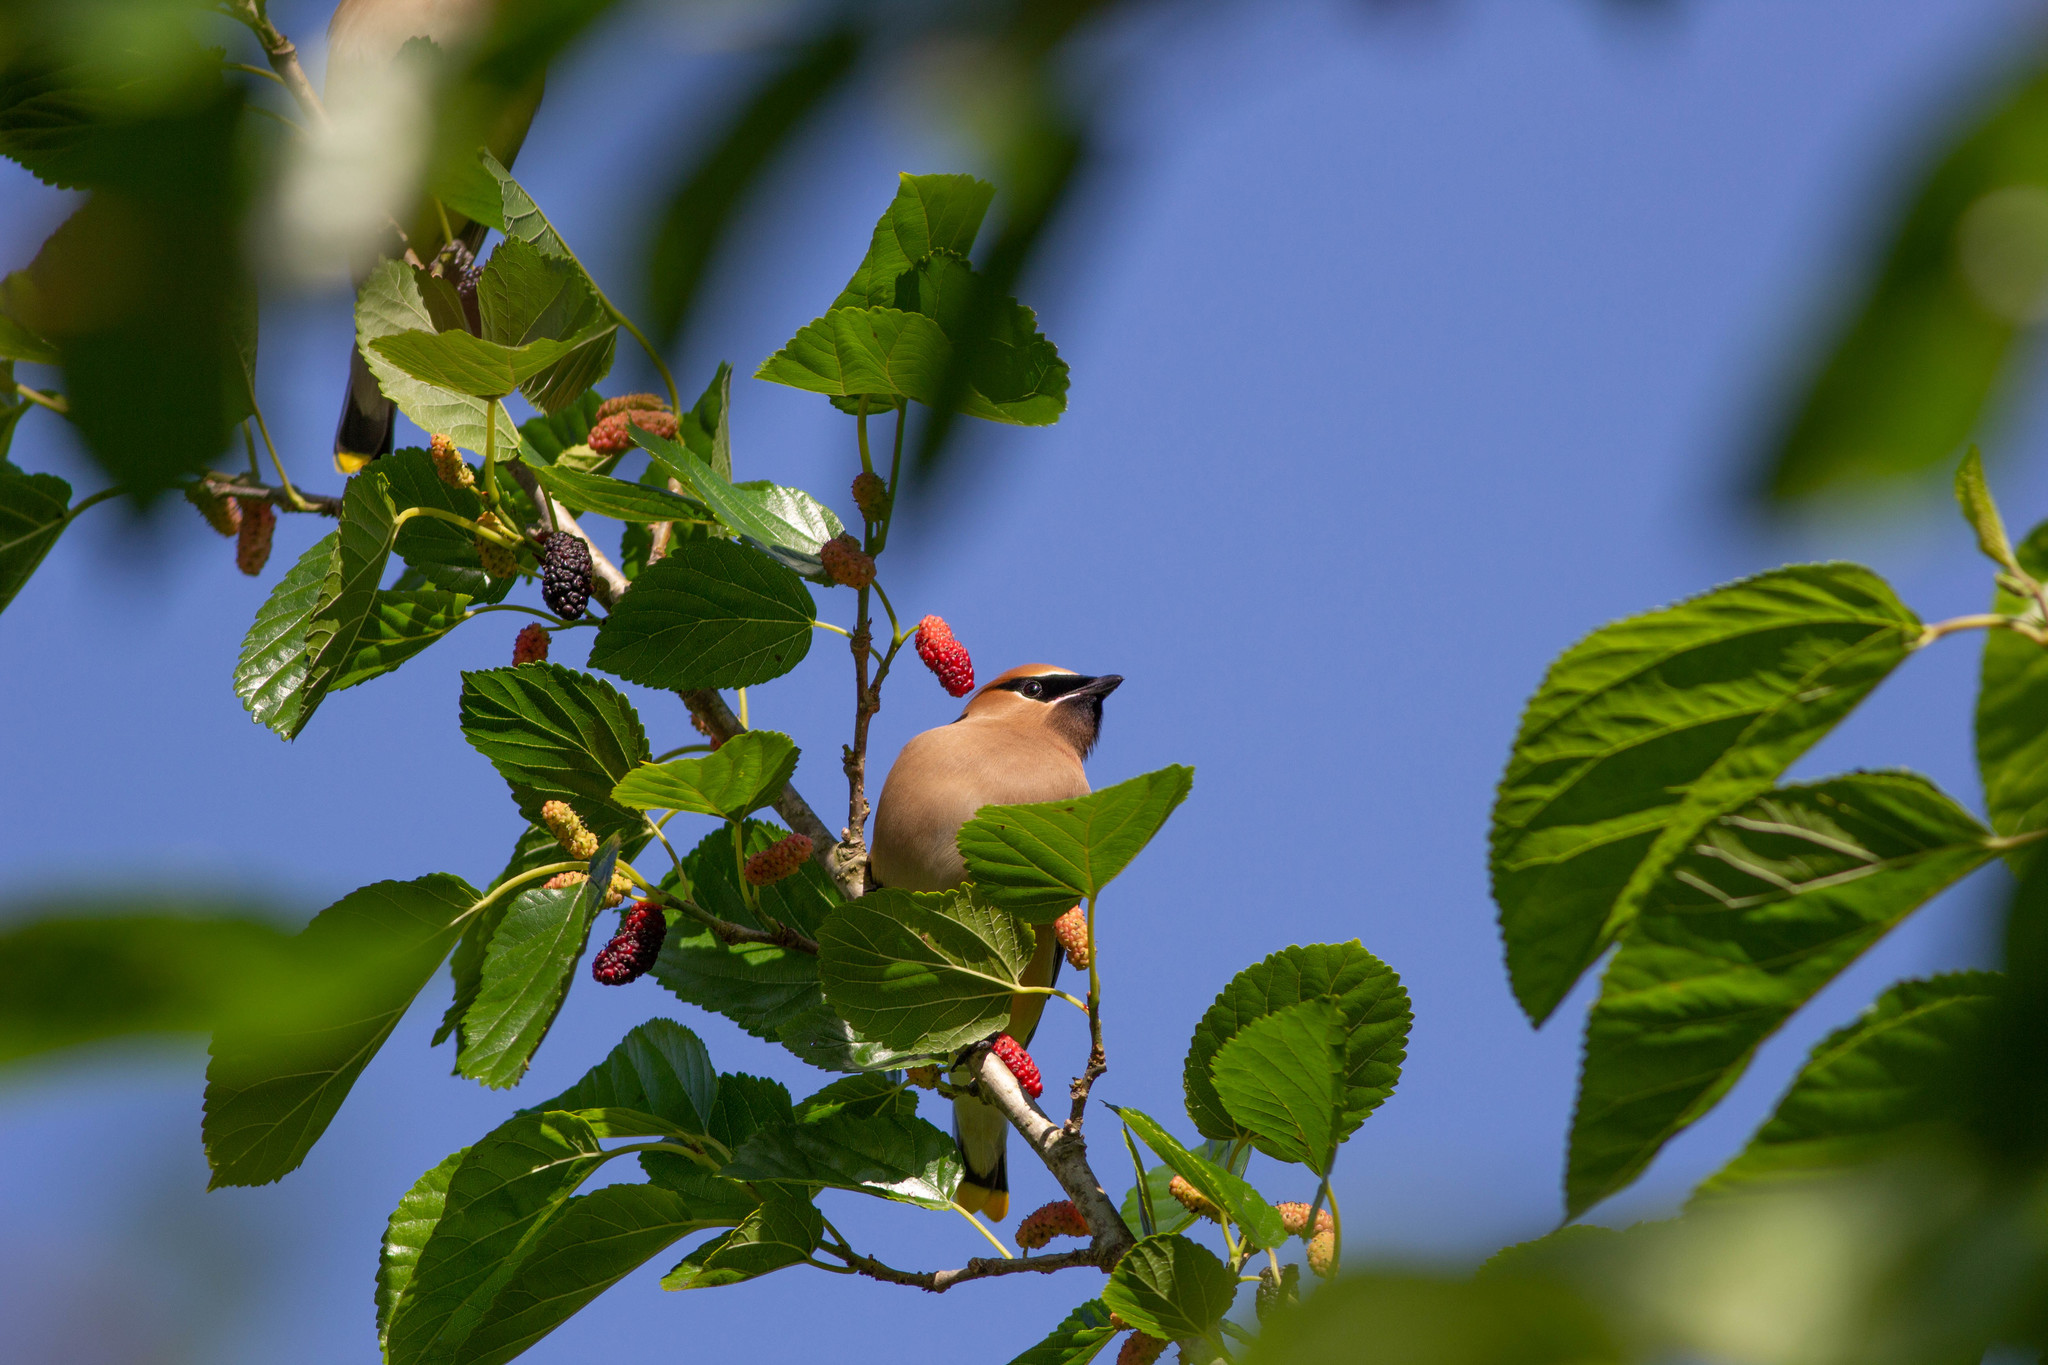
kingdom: Animalia
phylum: Chordata
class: Aves
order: Passeriformes
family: Bombycillidae
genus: Bombycilla
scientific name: Bombycilla cedrorum
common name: Cedar waxwing
